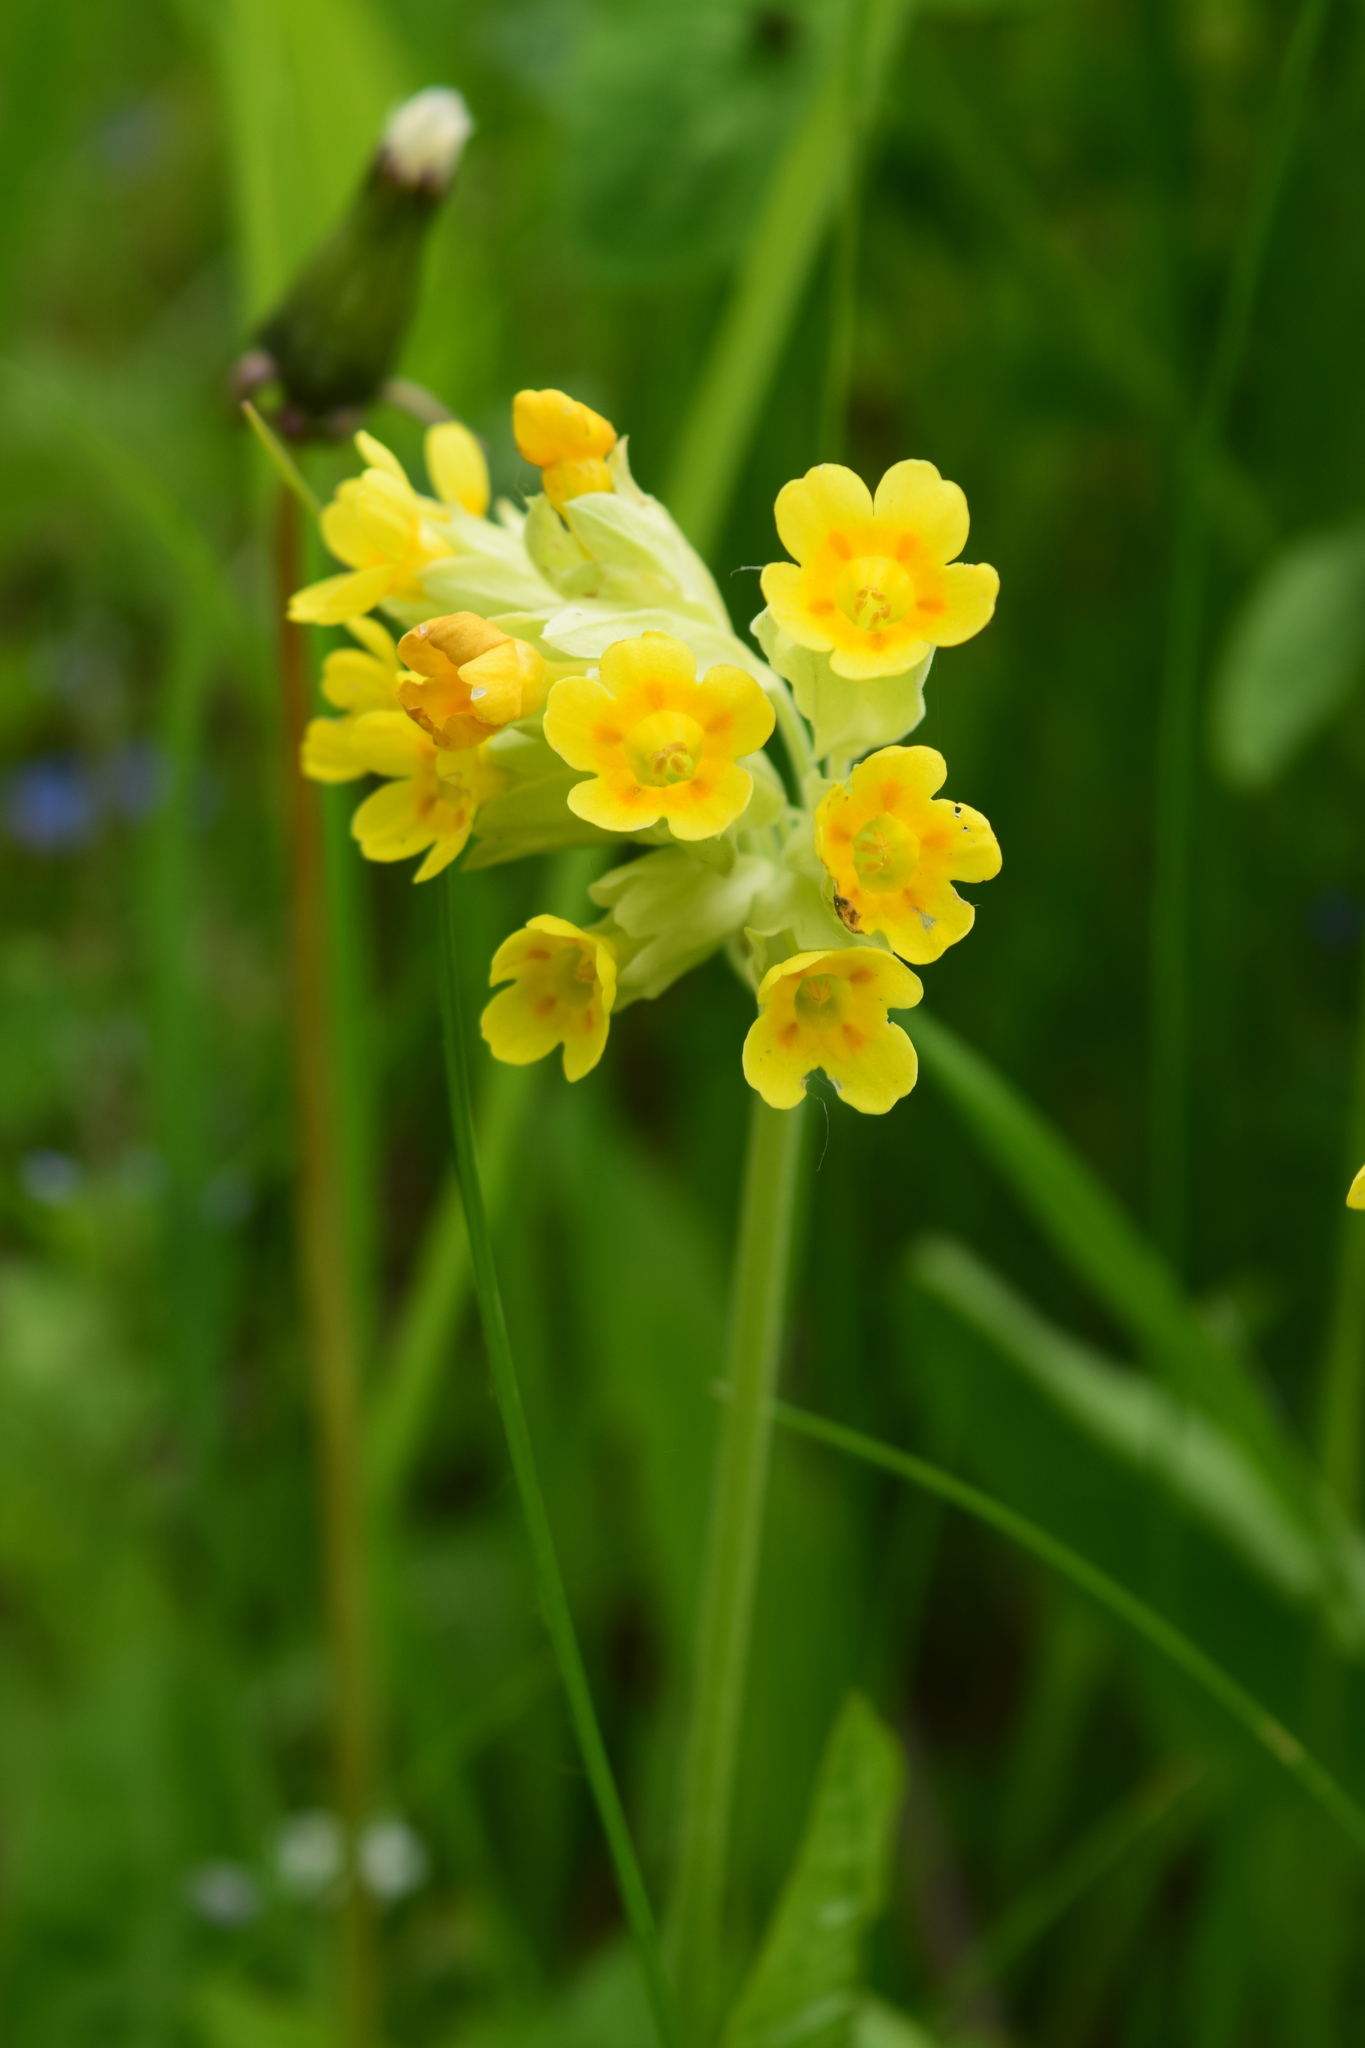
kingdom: Plantae
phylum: Tracheophyta
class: Magnoliopsida
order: Ericales
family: Primulaceae
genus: Primula
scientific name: Primula veris
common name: Cowslip
